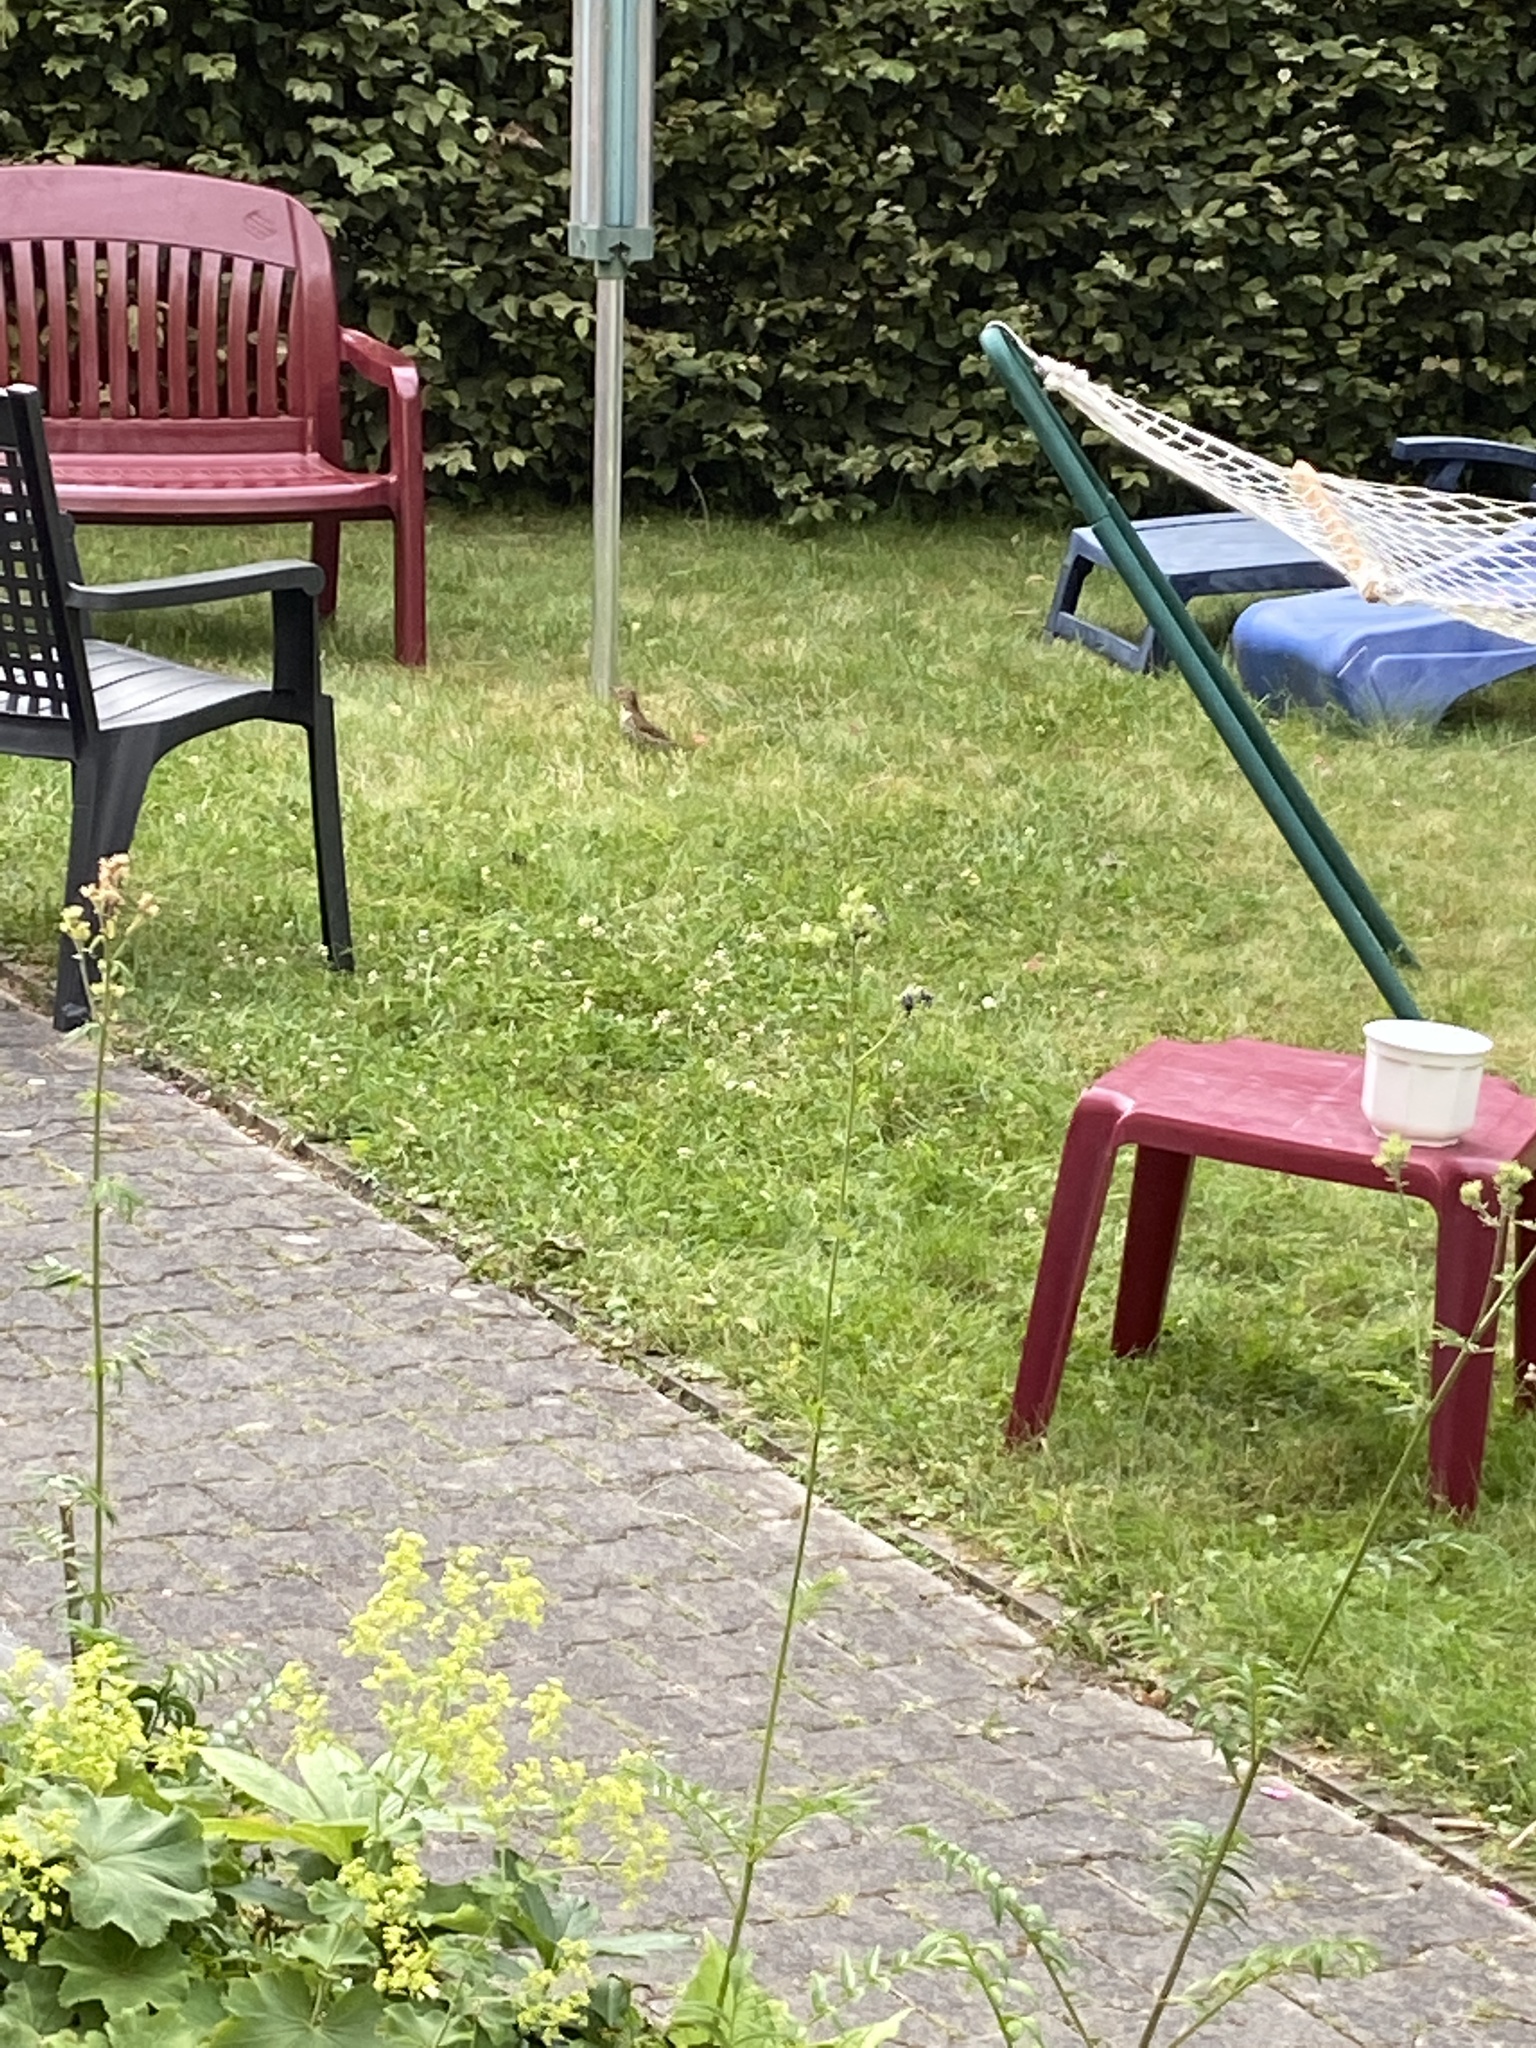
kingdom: Animalia
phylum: Chordata
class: Aves
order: Passeriformes
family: Turdidae
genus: Turdus
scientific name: Turdus philomelos
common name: Song thrush
